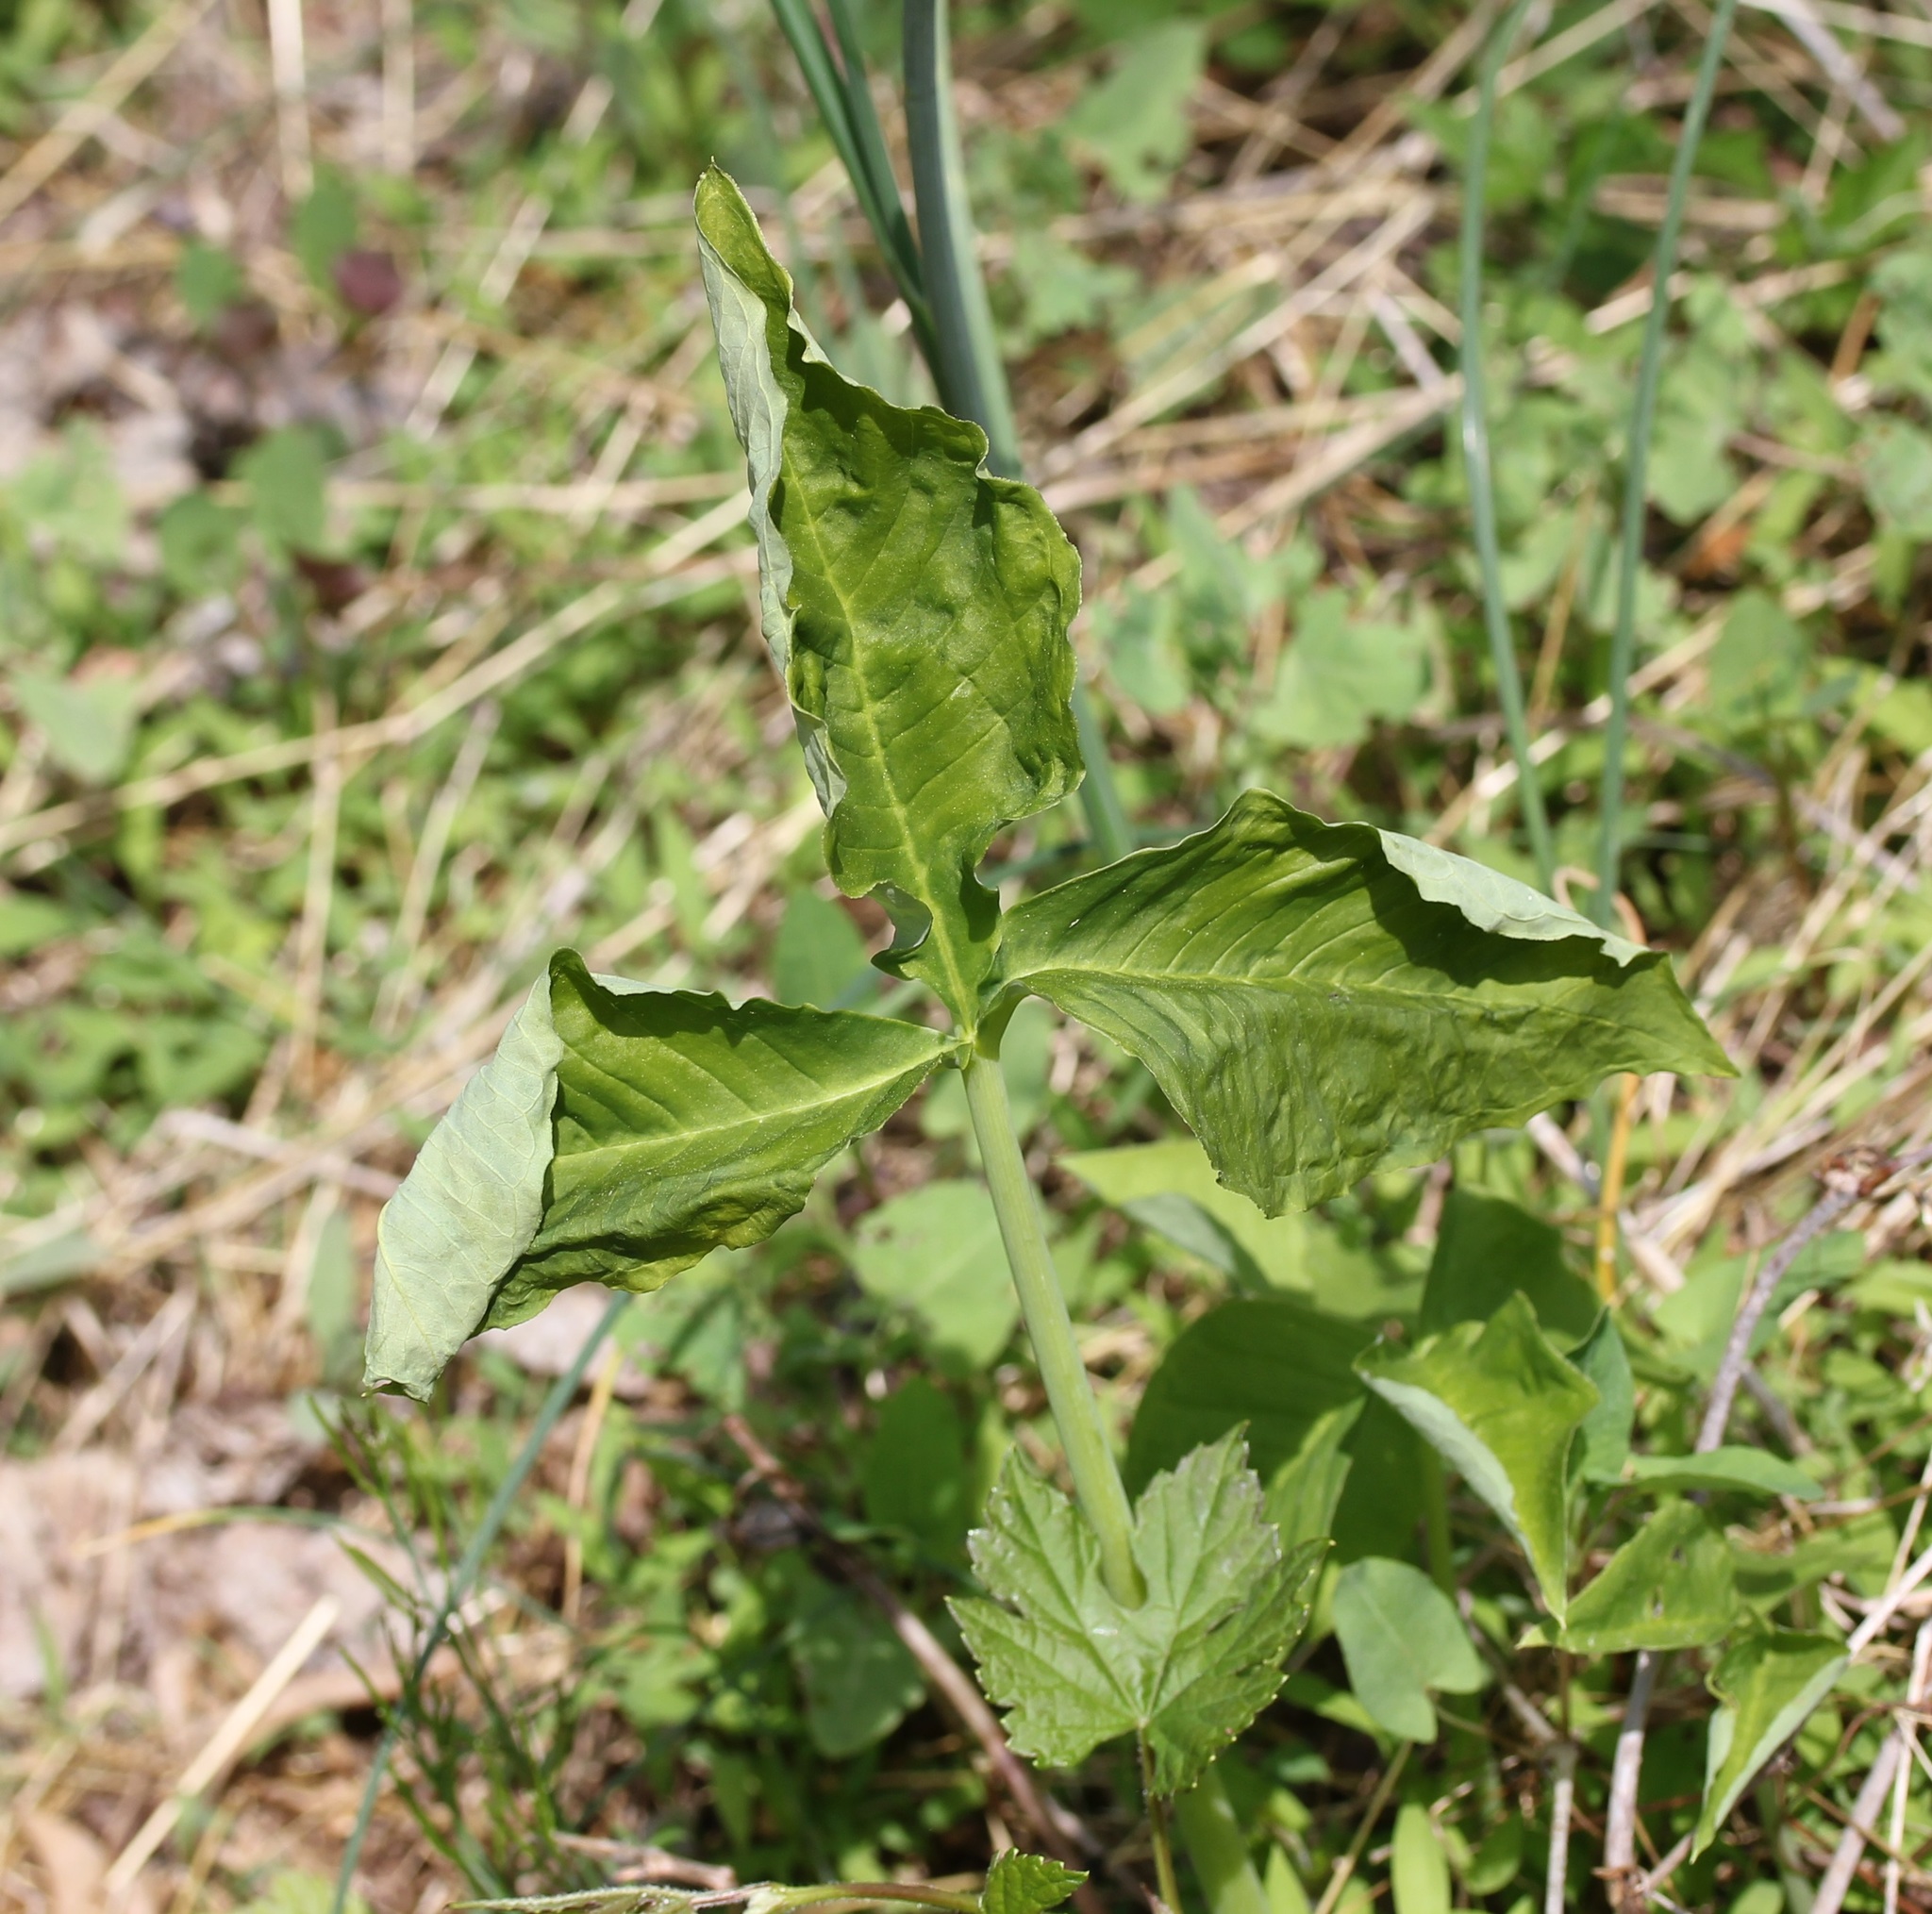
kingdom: Plantae
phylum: Tracheophyta
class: Liliopsida
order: Alismatales
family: Araceae
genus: Arisaema
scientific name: Arisaema triphyllum
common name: Jack-in-the-pulpit
